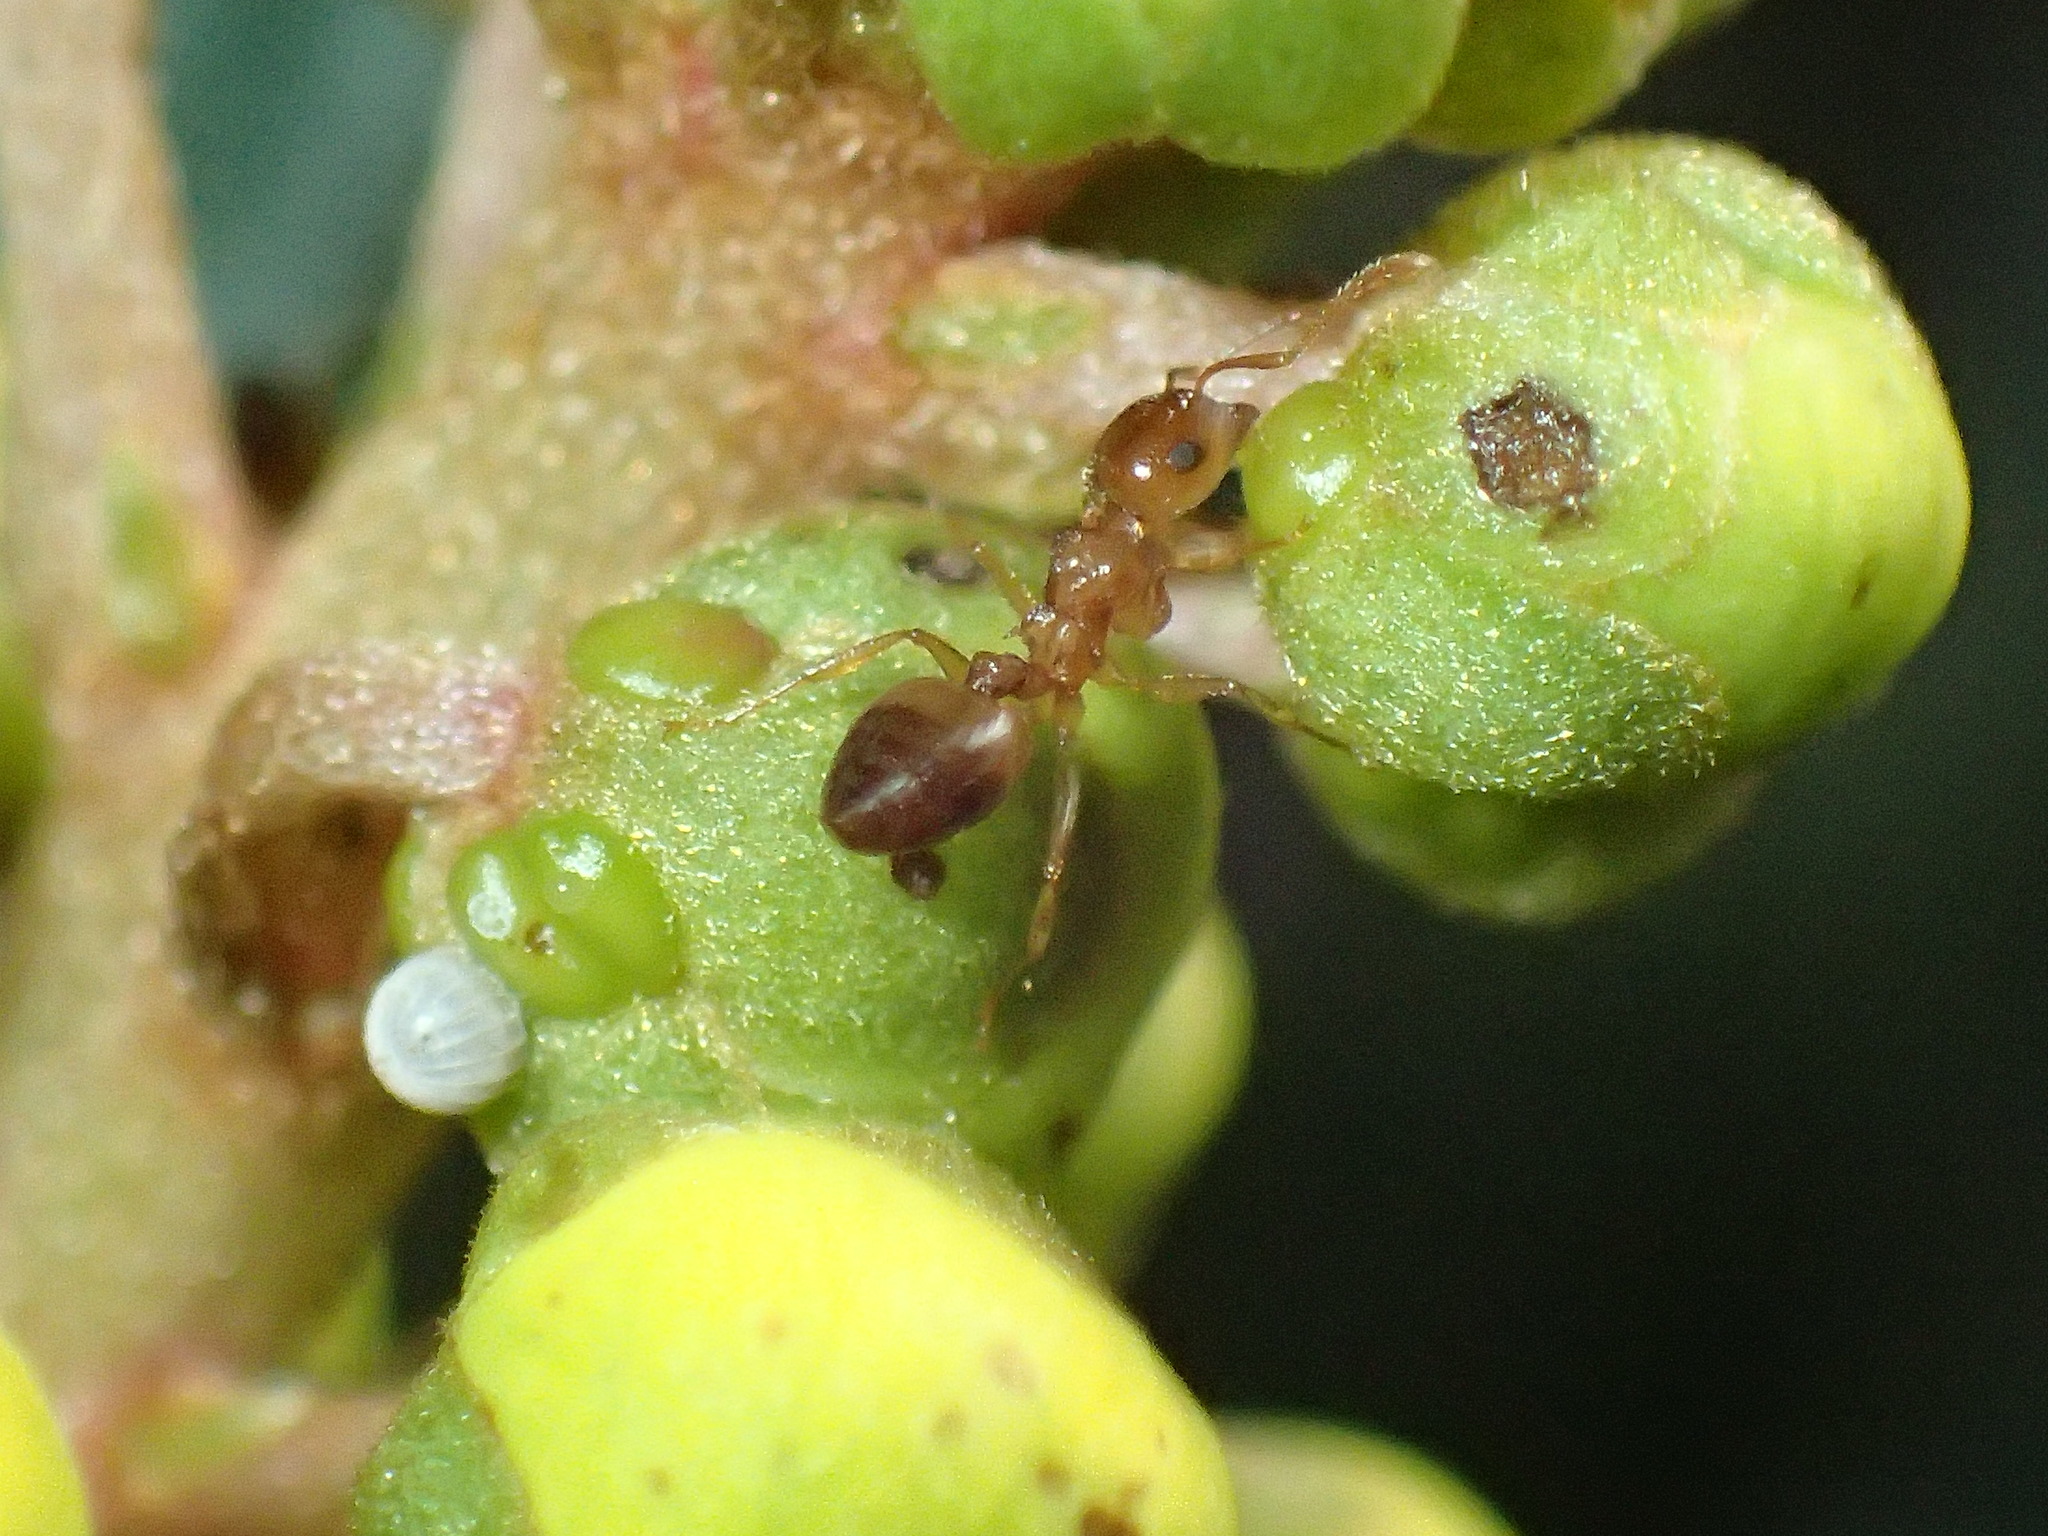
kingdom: Animalia
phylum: Arthropoda
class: Insecta
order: Hymenoptera
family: Formicidae
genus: Crematogaster
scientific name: Crematogaster castanea
